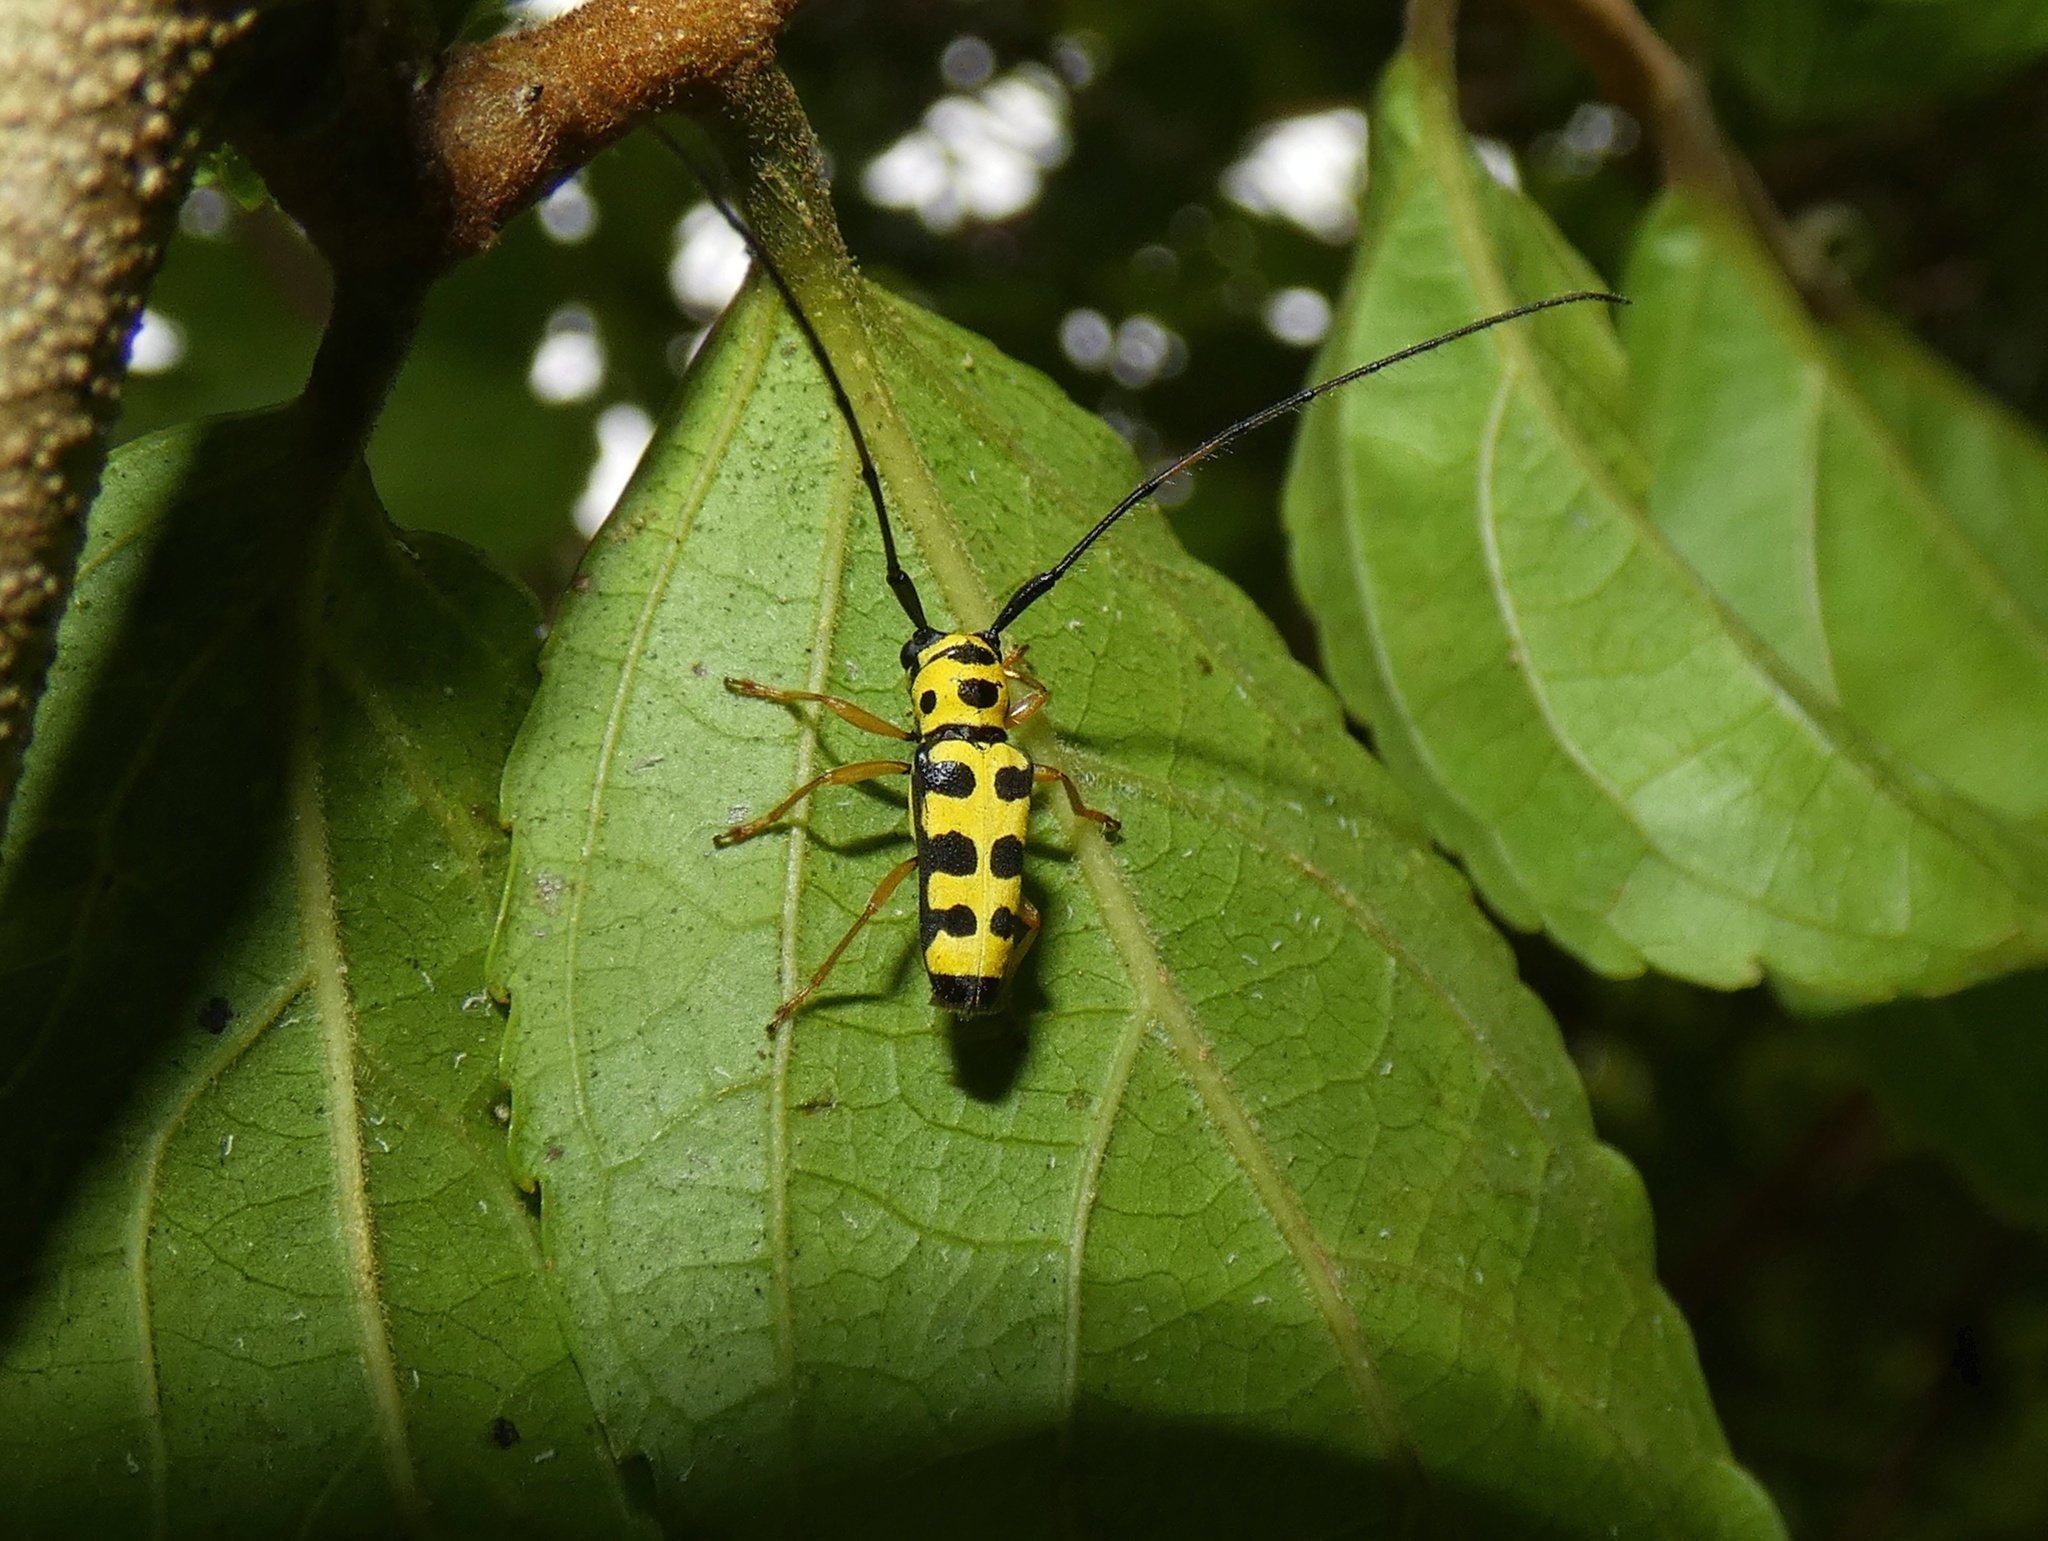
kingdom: Animalia
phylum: Arthropoda
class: Insecta
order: Coleoptera
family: Cerambycidae
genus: Zeale
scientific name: Zeale scalaris
